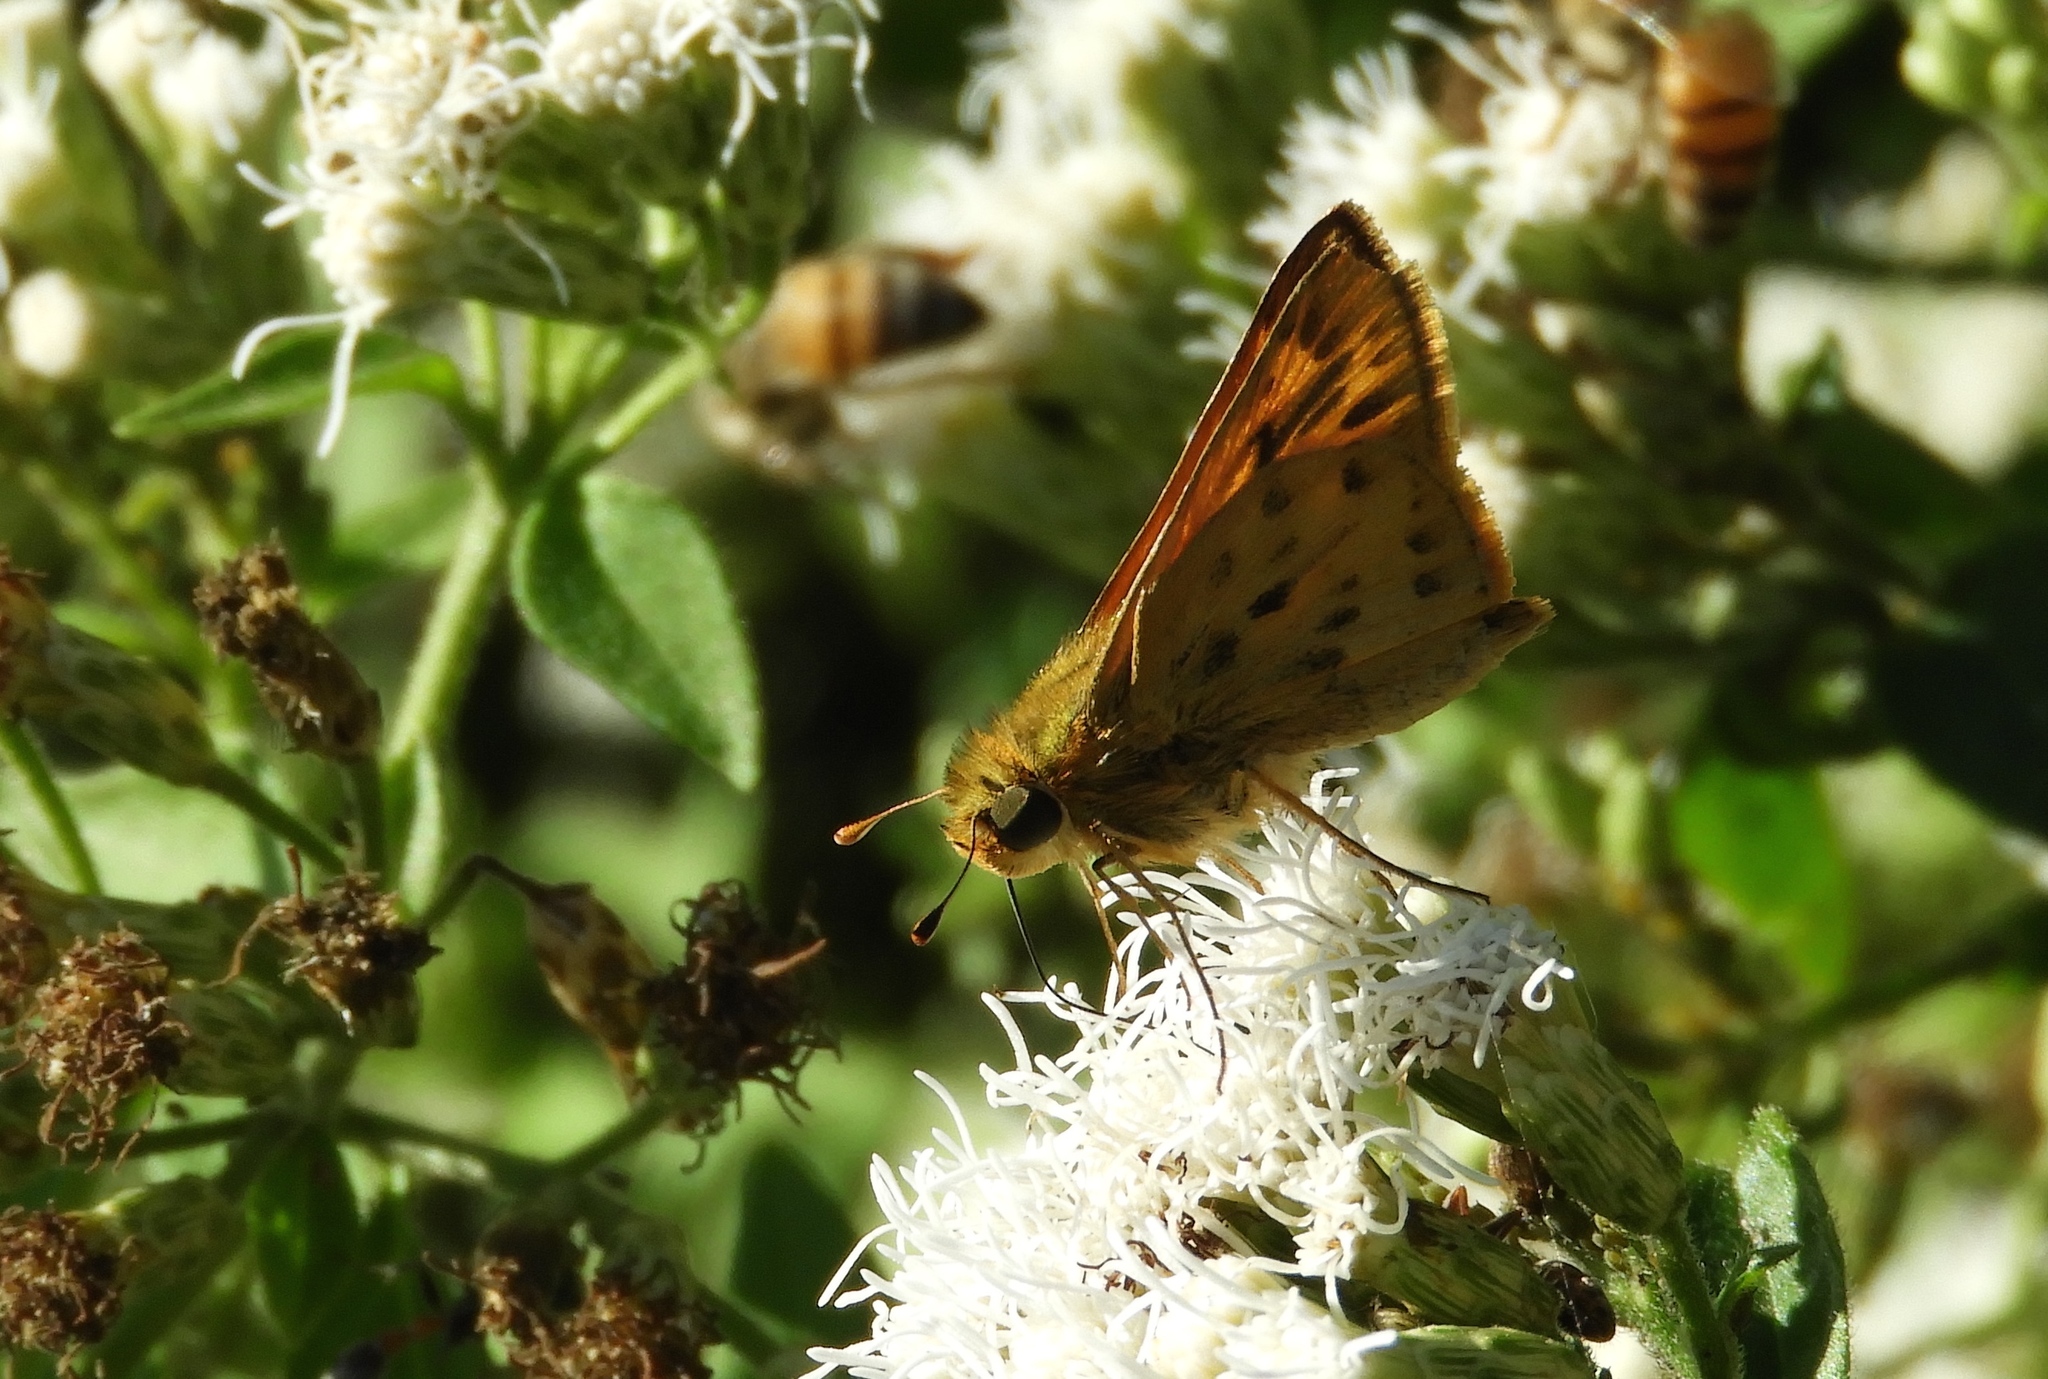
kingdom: Animalia
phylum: Arthropoda
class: Insecta
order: Lepidoptera
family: Hesperiidae
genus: Hylephila
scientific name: Hylephila phyleus
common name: Fiery skipper
